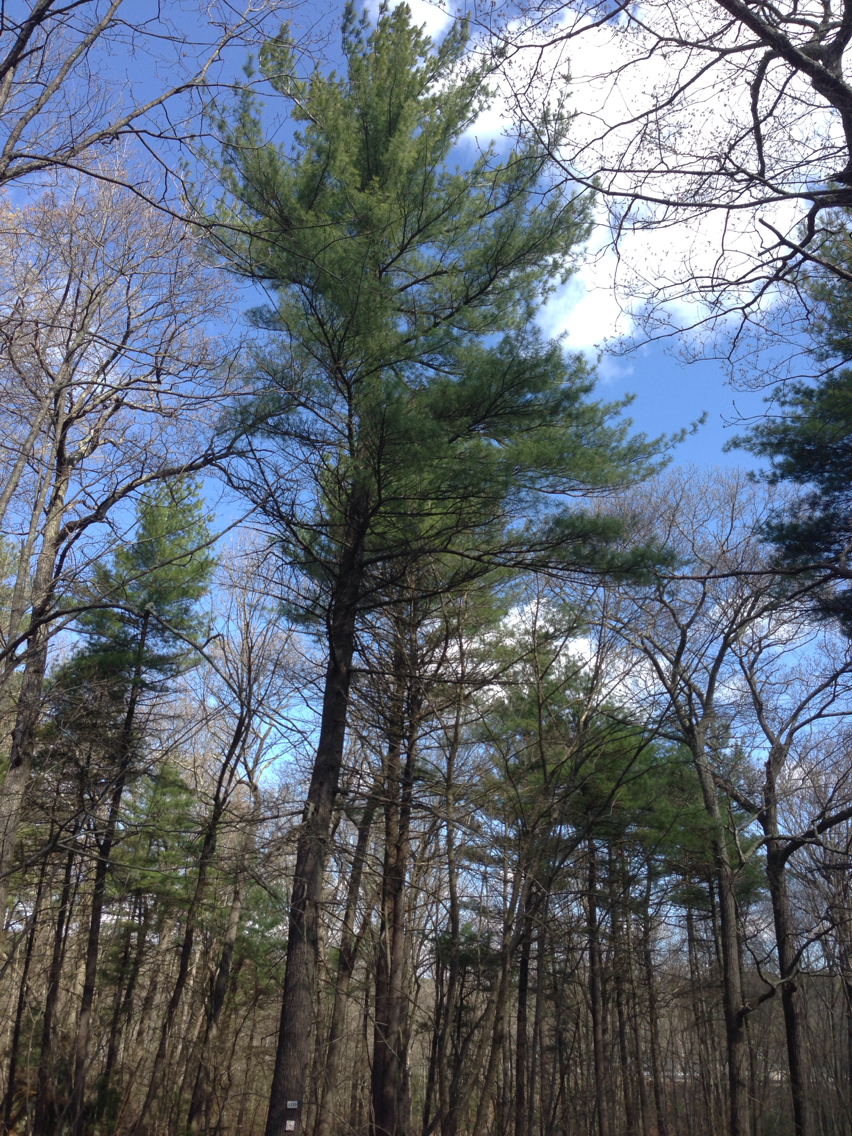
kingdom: Plantae
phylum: Tracheophyta
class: Pinopsida
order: Pinales
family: Pinaceae
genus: Pinus
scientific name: Pinus strobus
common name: Weymouth pine
